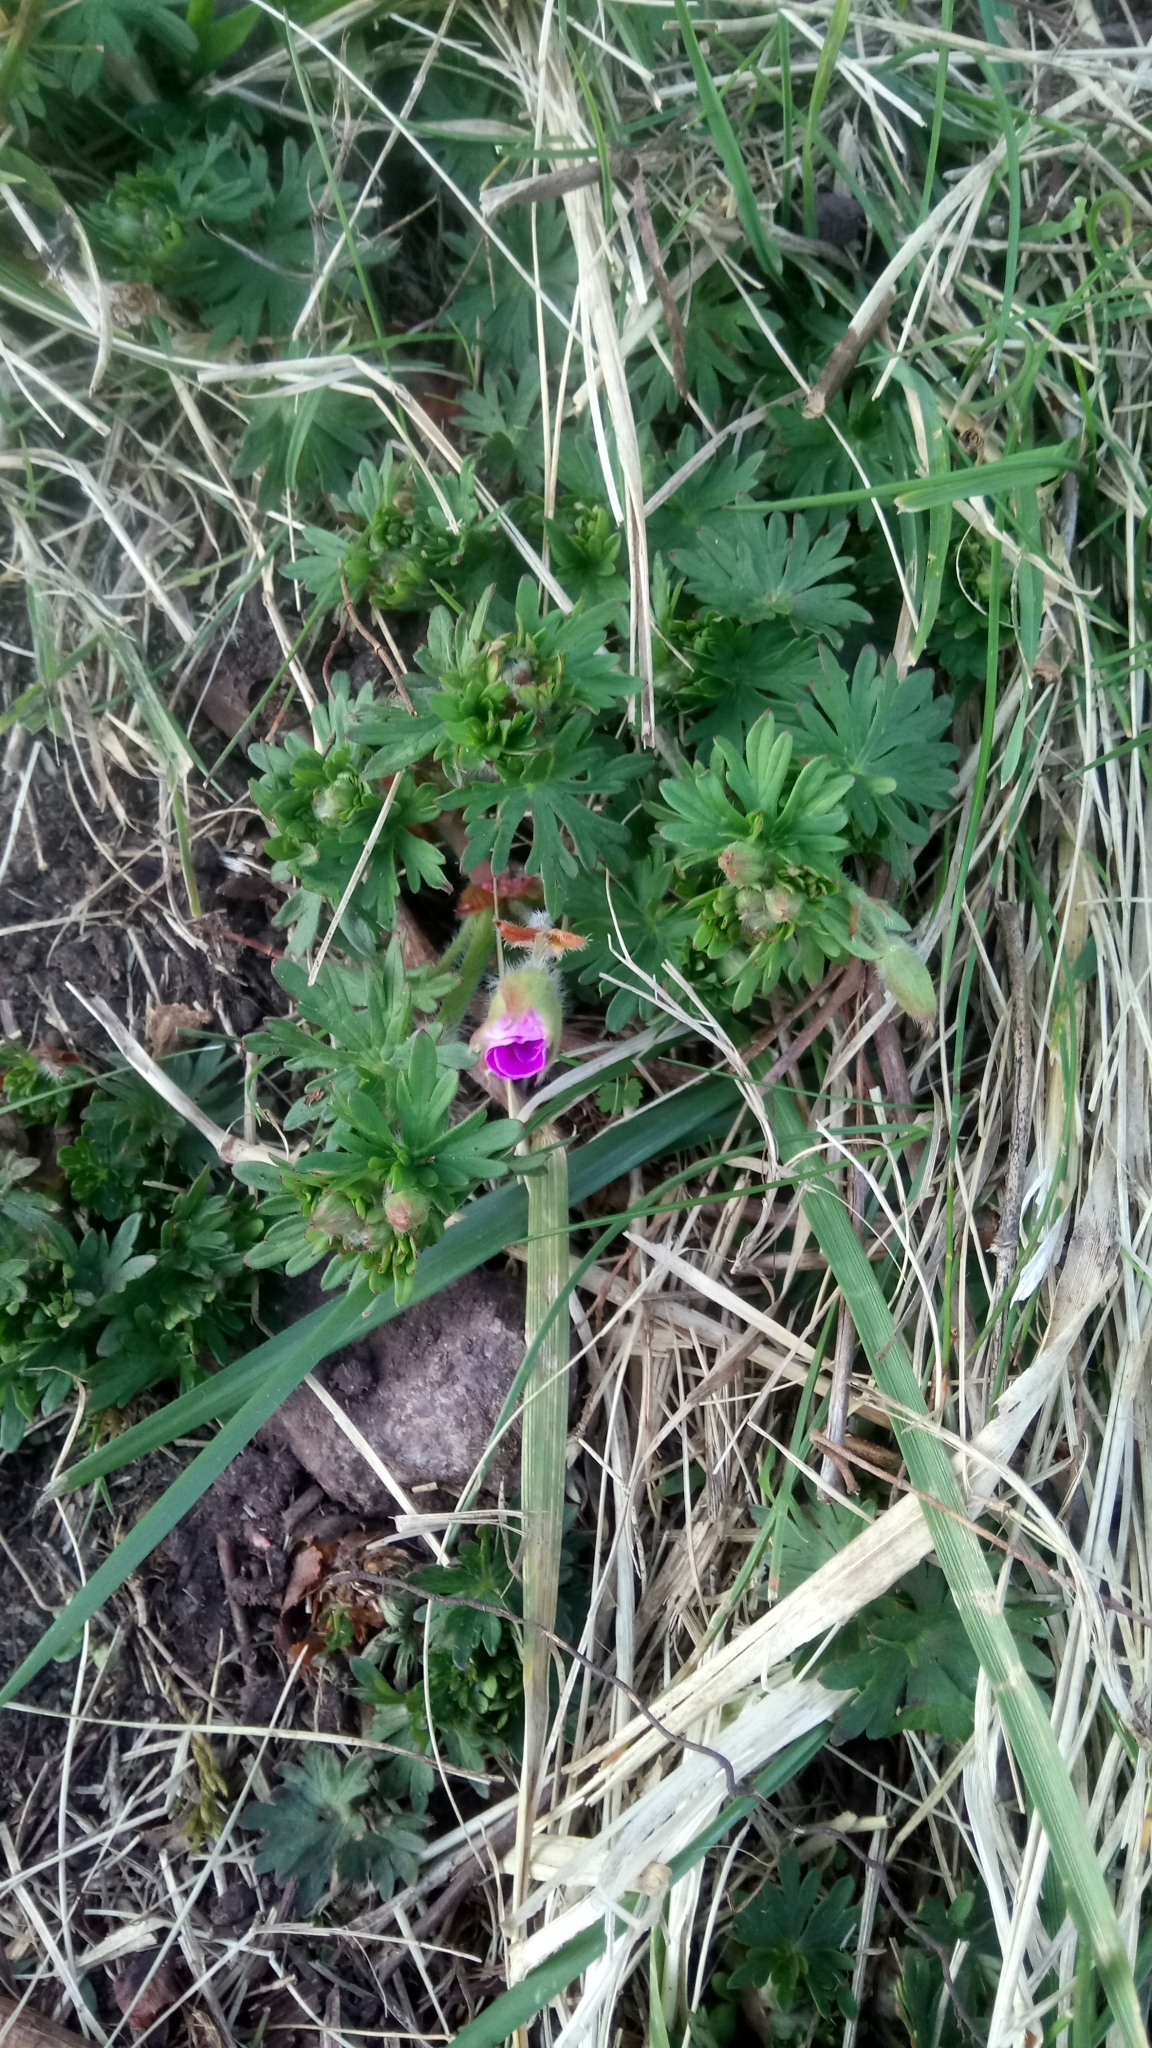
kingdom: Plantae
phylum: Tracheophyta
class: Magnoliopsida
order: Geraniales
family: Geraniaceae
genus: Geranium
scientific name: Geranium sanguineum
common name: Bloody crane's-bill
